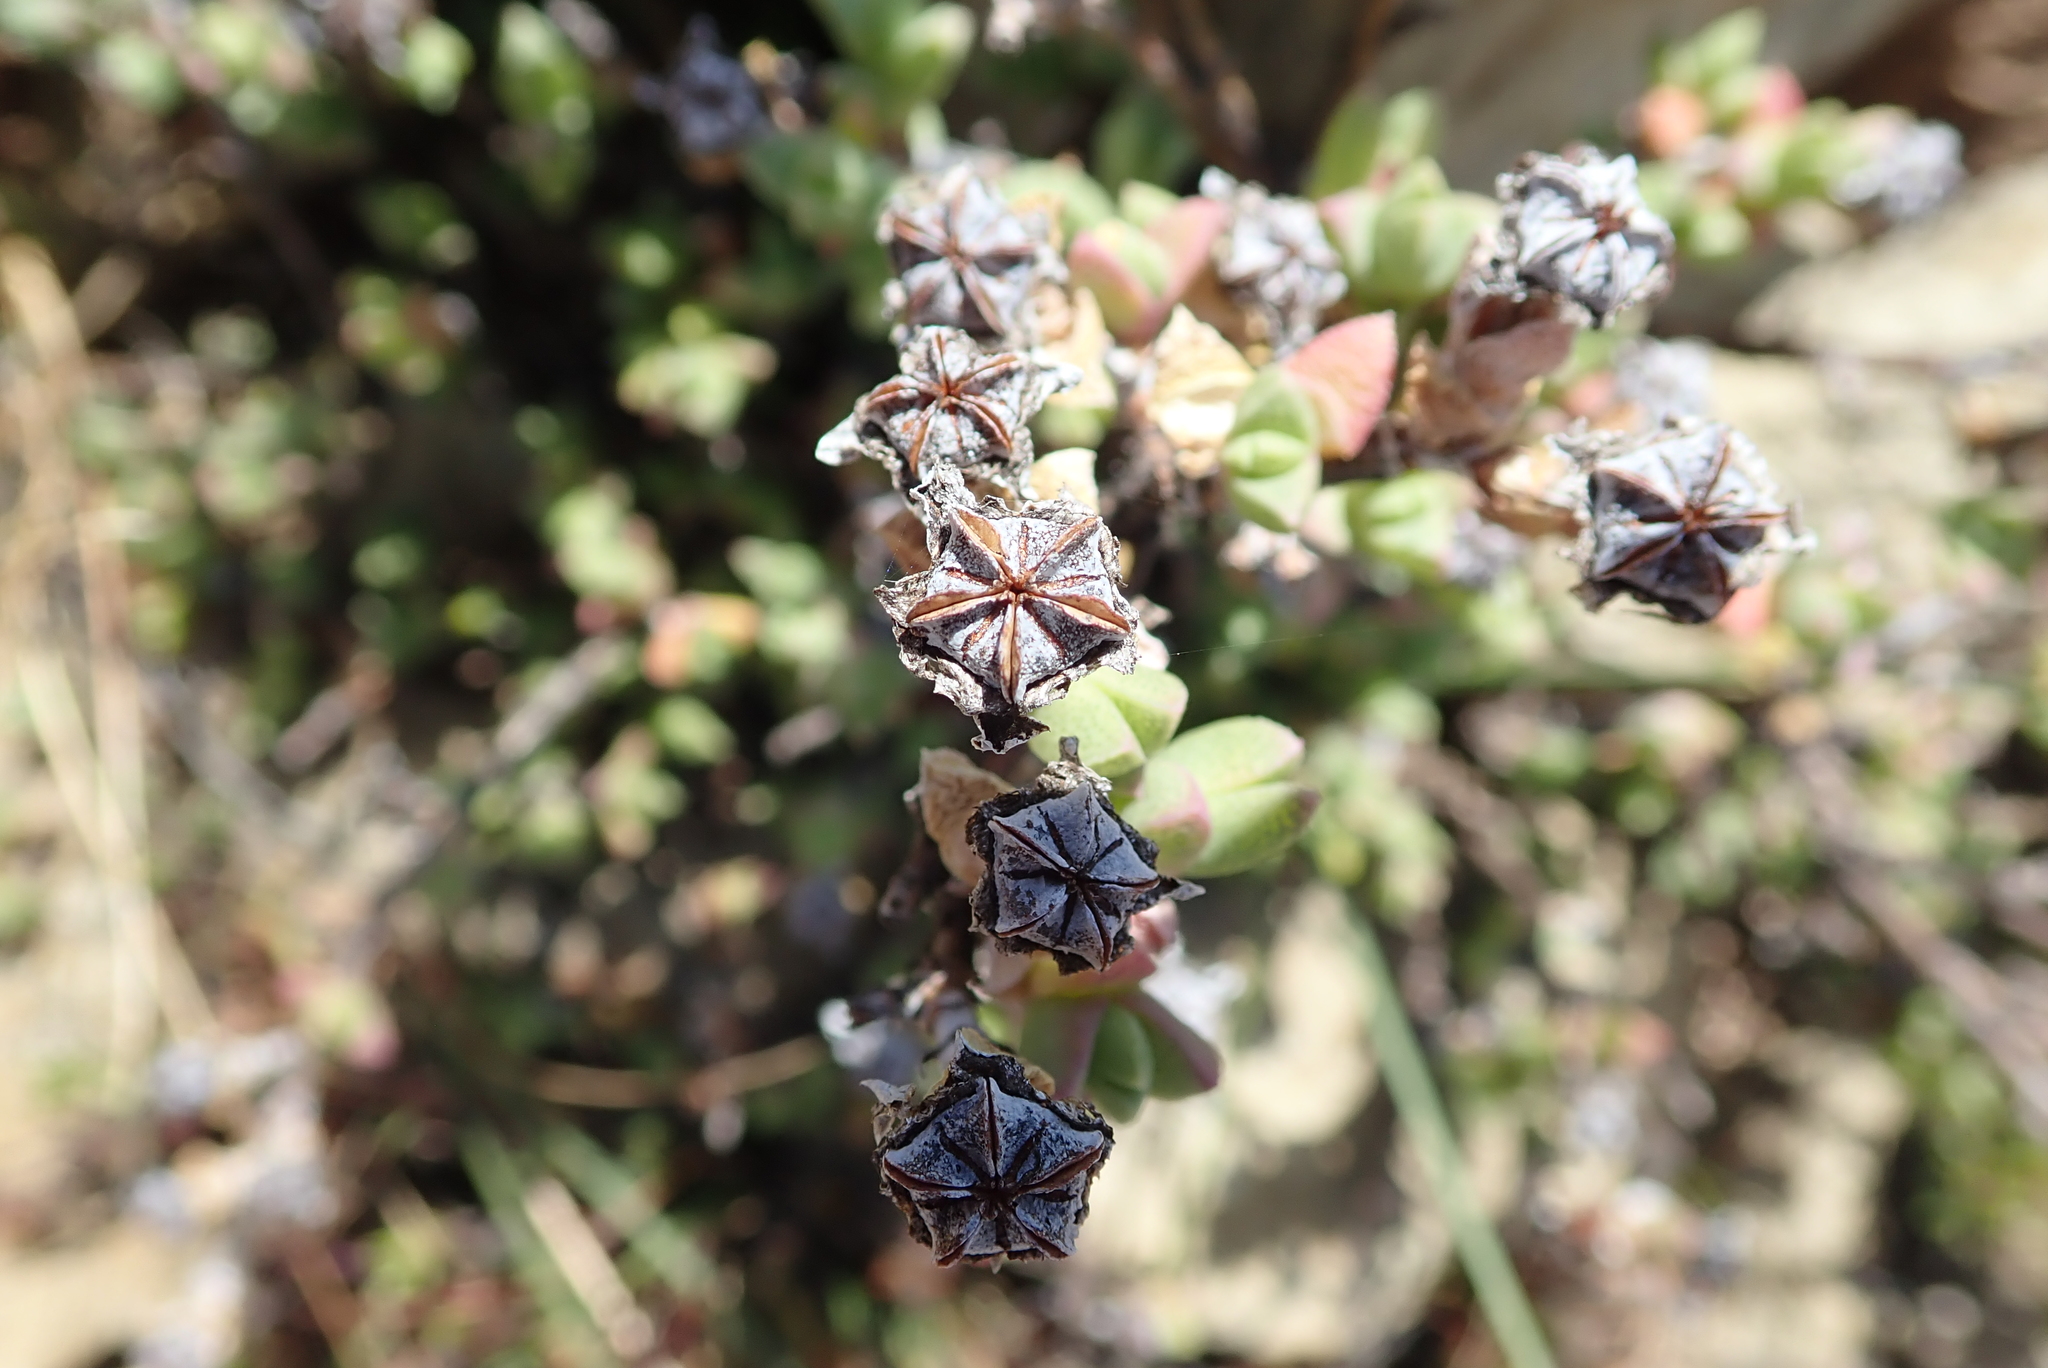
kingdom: Plantae
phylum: Tracheophyta
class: Magnoliopsida
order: Caryophyllales
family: Aizoaceae
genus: Ruschia
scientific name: Ruschia putterillii
